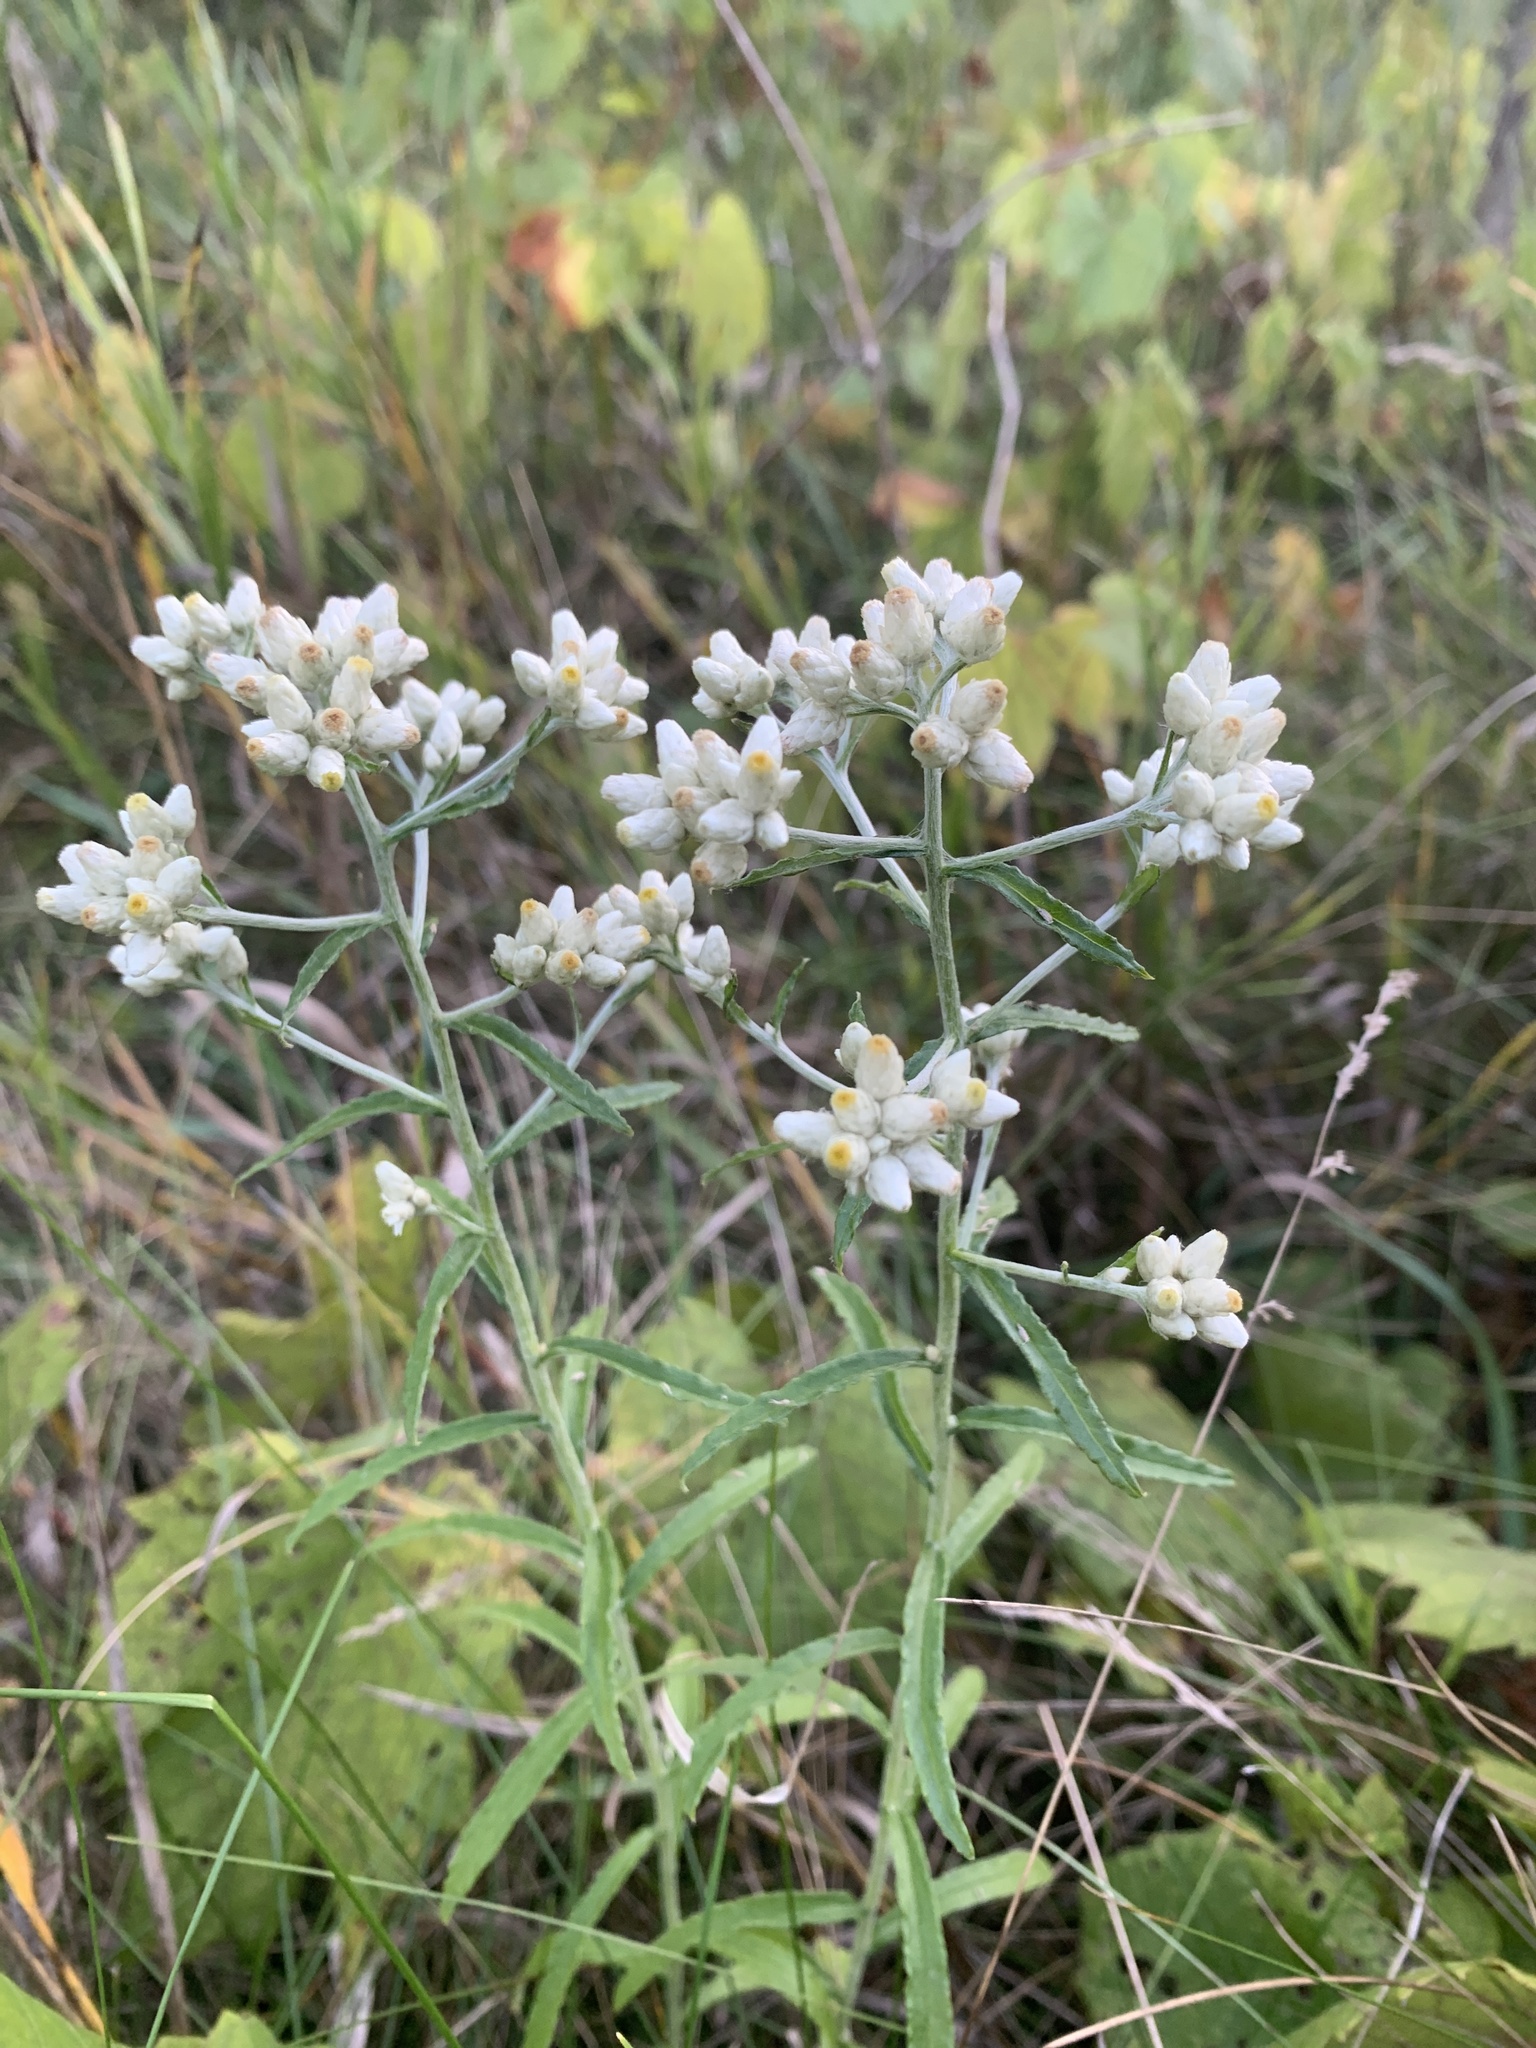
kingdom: Plantae
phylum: Tracheophyta
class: Magnoliopsida
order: Asterales
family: Asteraceae
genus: Pseudognaphalium
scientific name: Pseudognaphalium obtusifolium
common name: Eastern rabbit-tobacco
